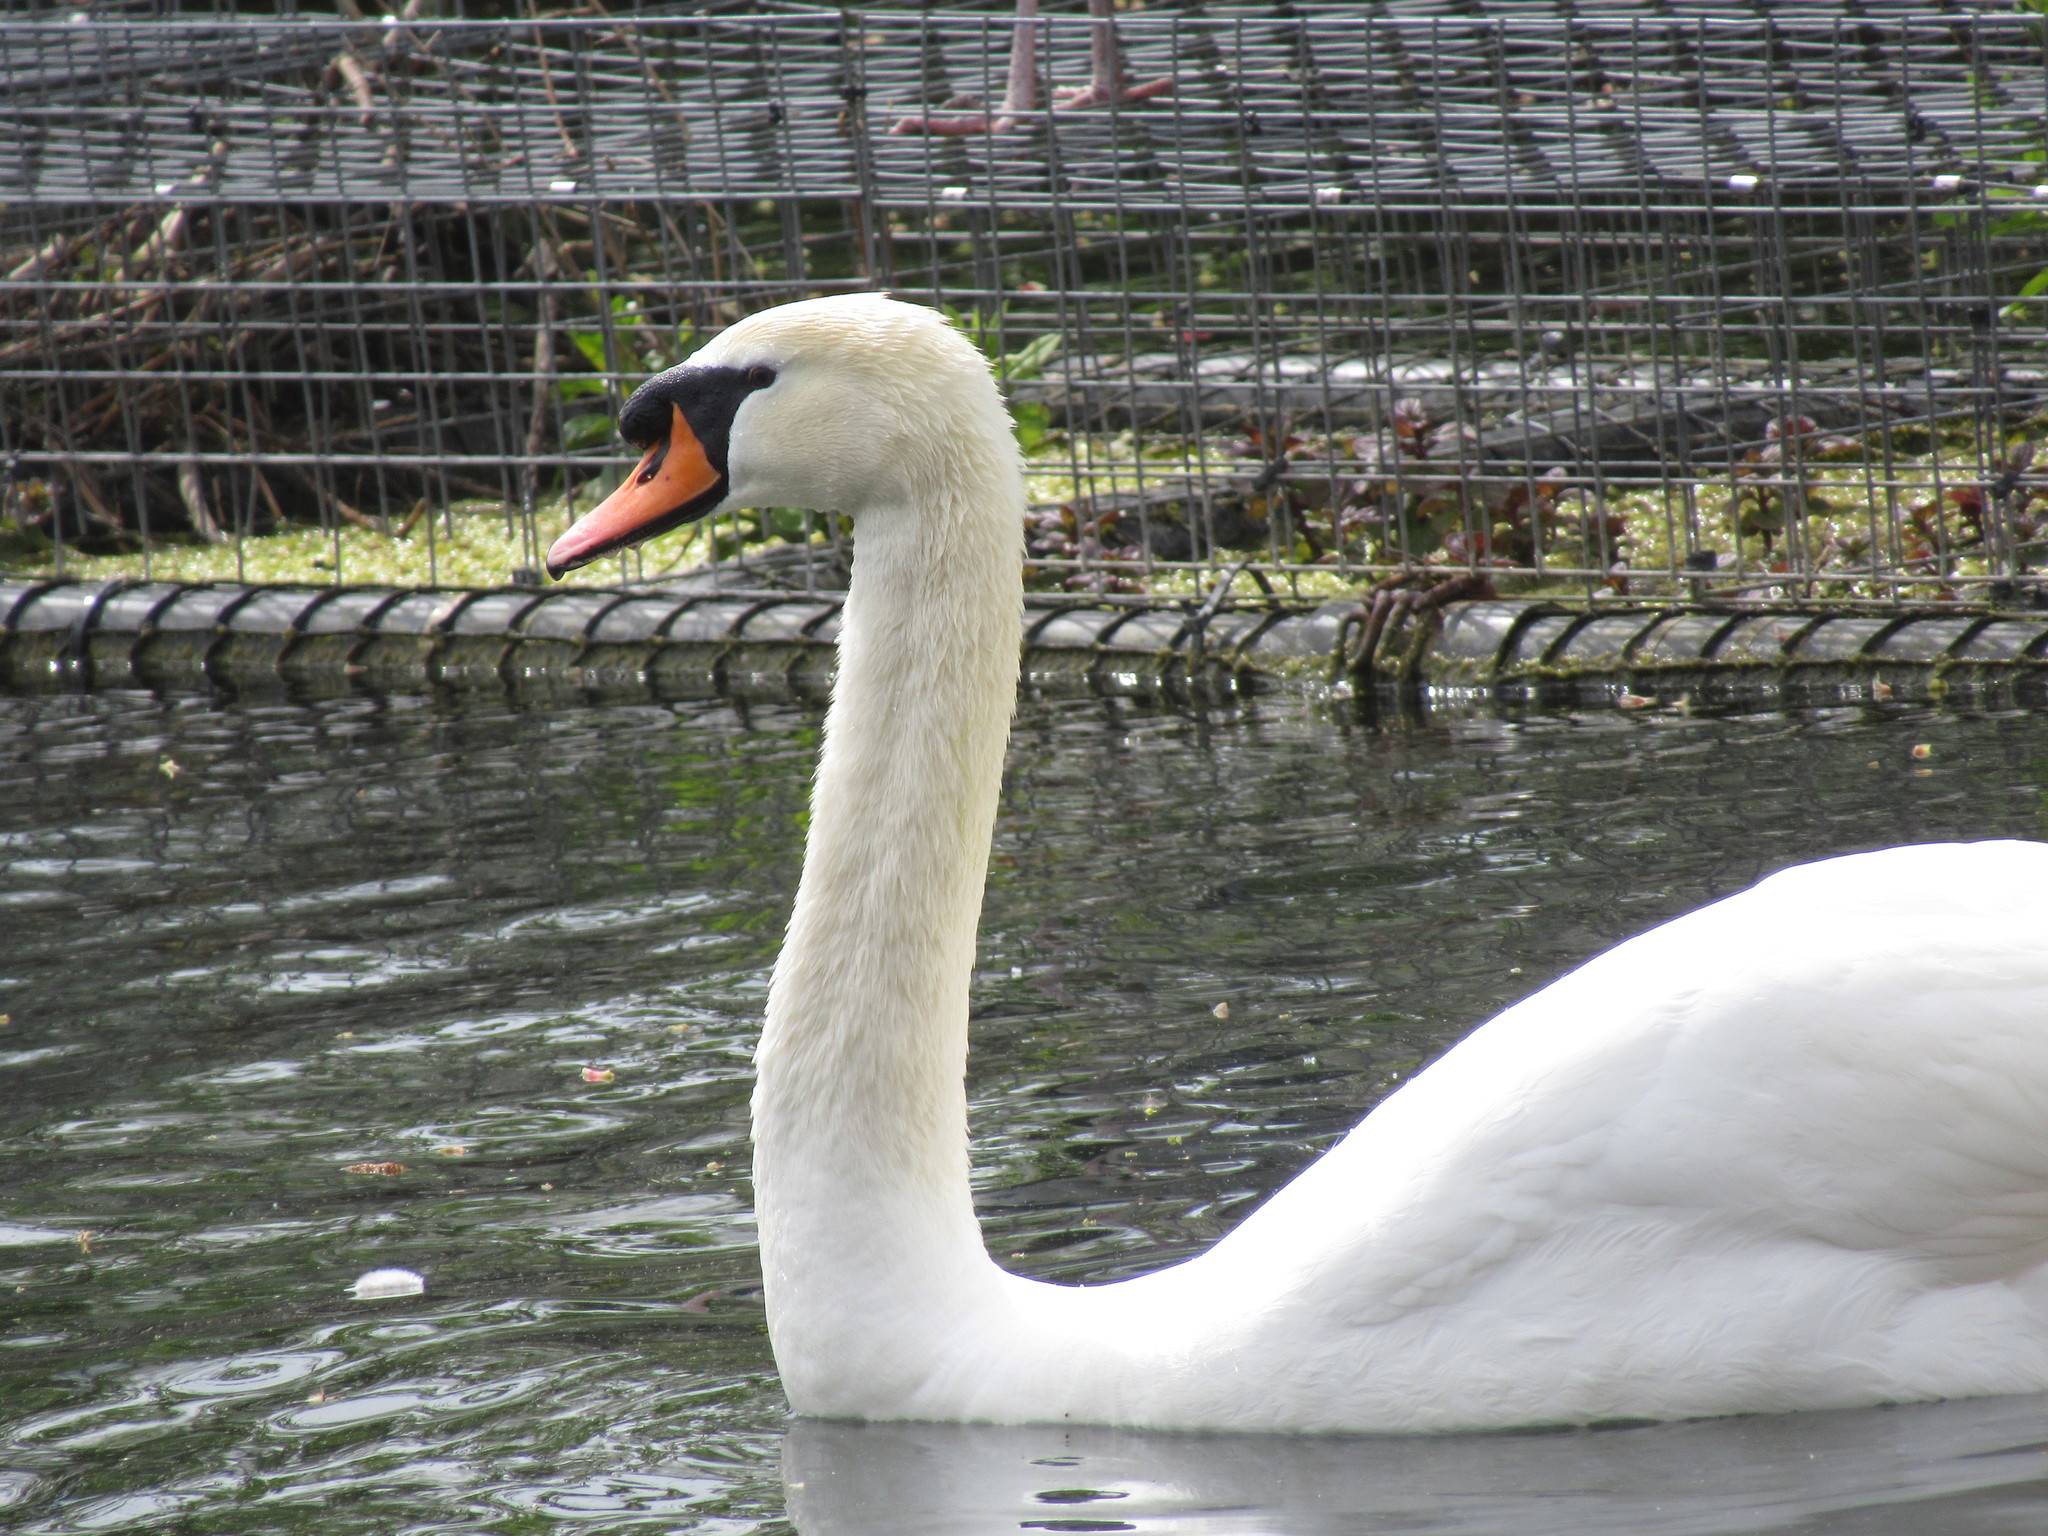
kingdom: Animalia
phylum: Chordata
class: Aves
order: Anseriformes
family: Anatidae
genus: Cygnus
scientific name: Cygnus olor
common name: Mute swan
